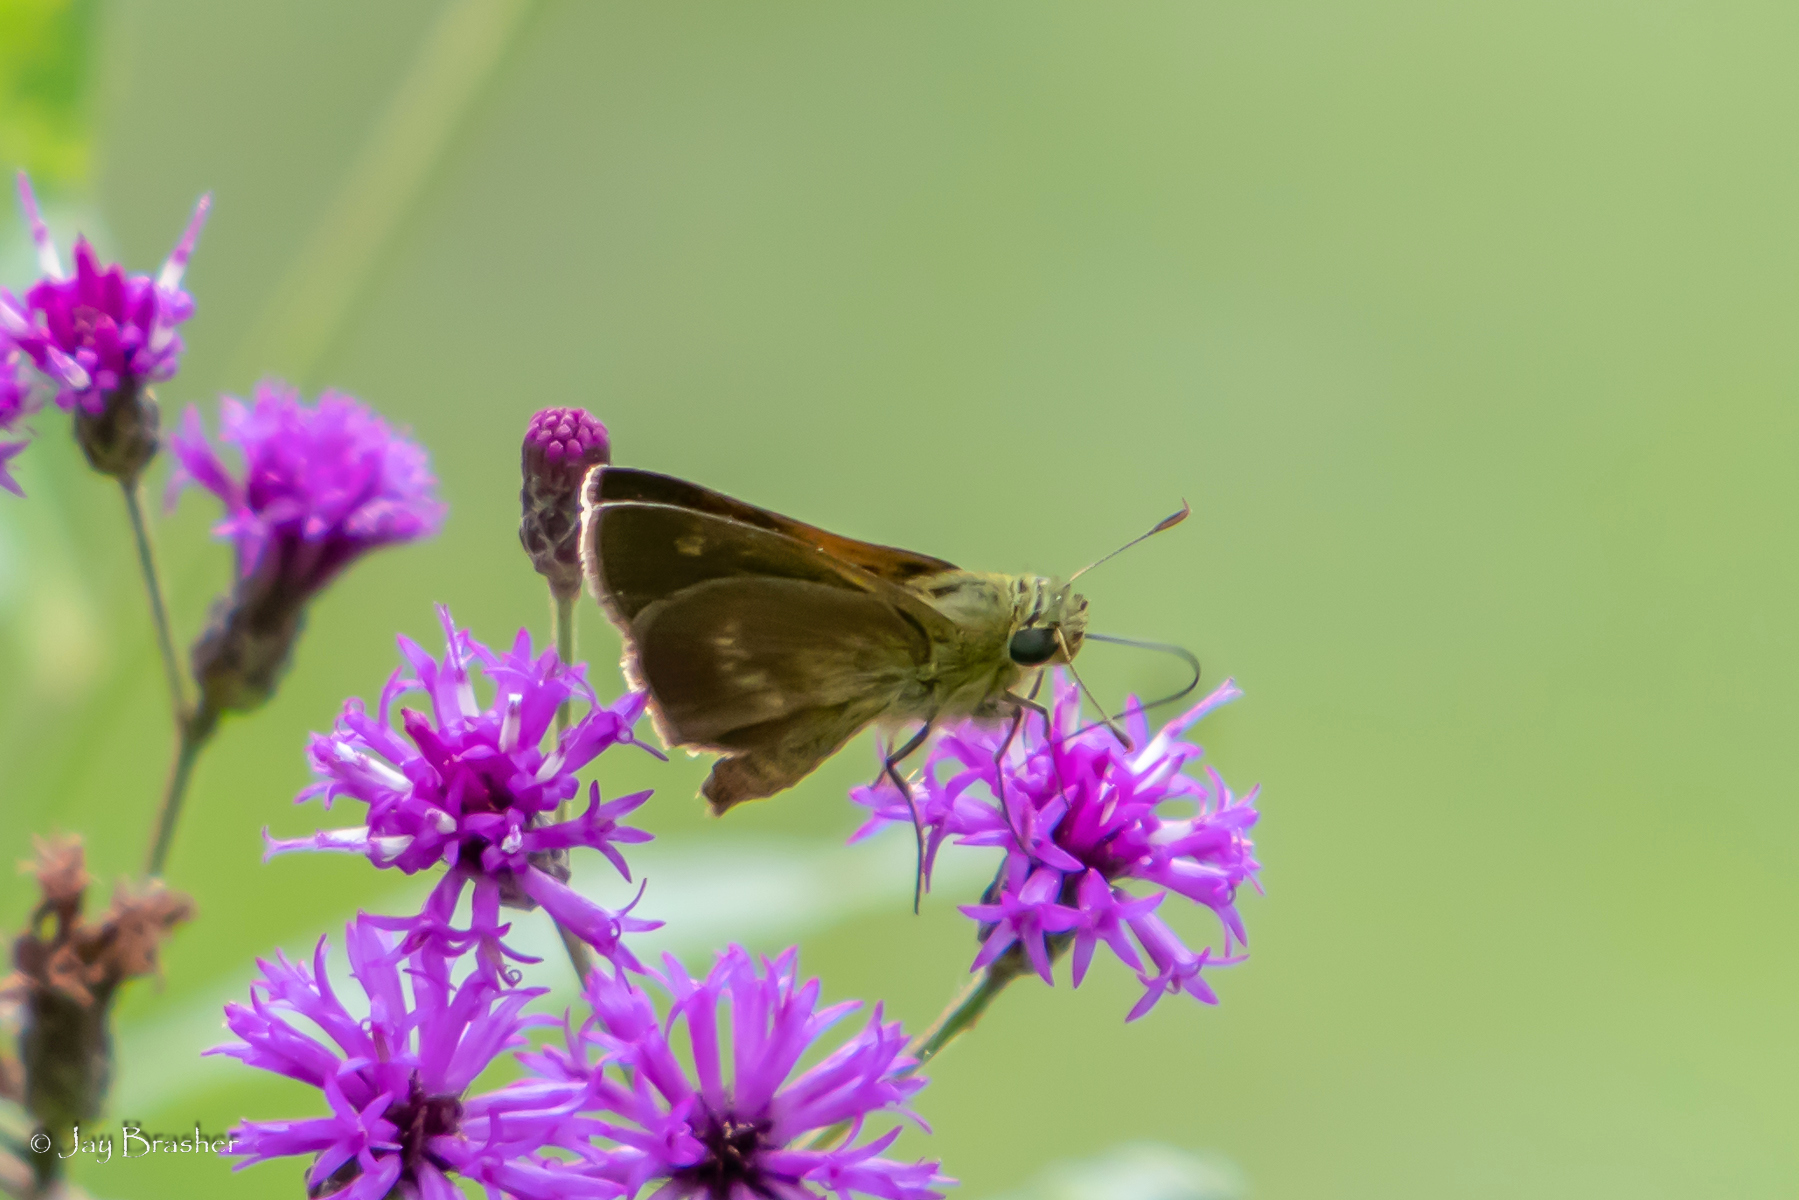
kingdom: Animalia
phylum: Arthropoda
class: Insecta
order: Lepidoptera
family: Hesperiidae
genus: Polites
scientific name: Polites egeremet
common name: Northern broken-dash
